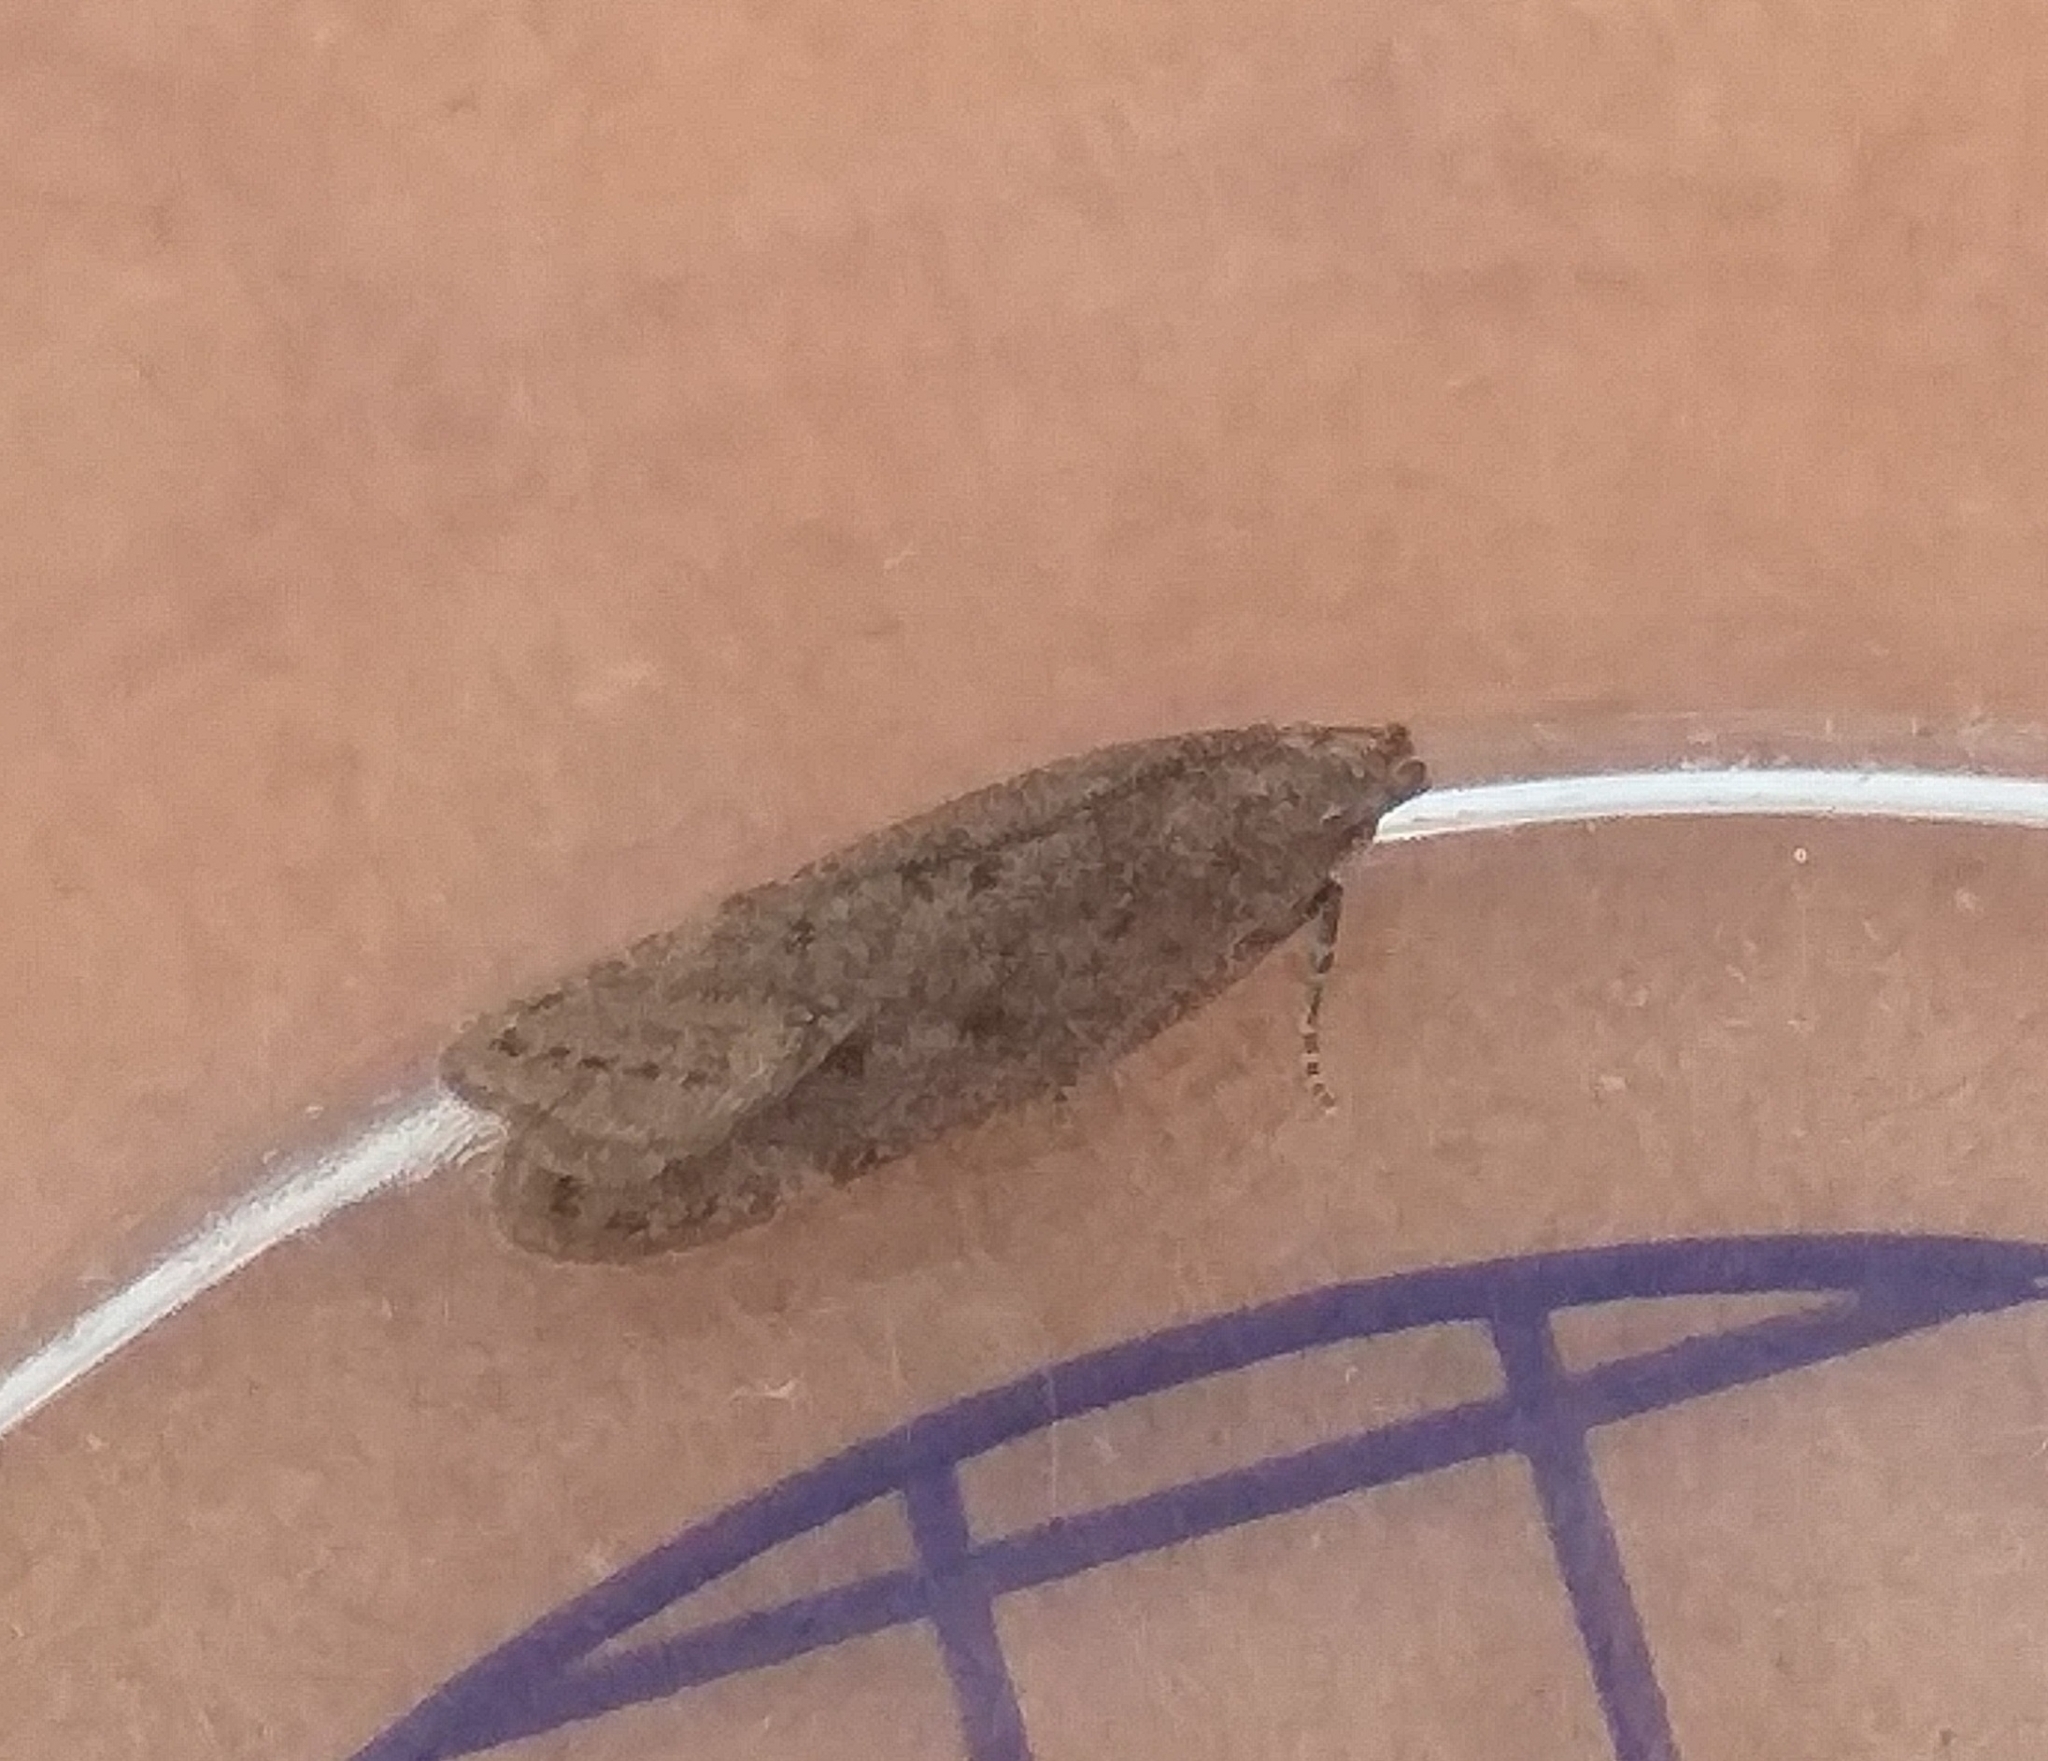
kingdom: Animalia
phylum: Arthropoda
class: Insecta
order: Lepidoptera
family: Gelechiidae
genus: Bryotropha
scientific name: Bryotropha terrella
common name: Cinerous groundling
